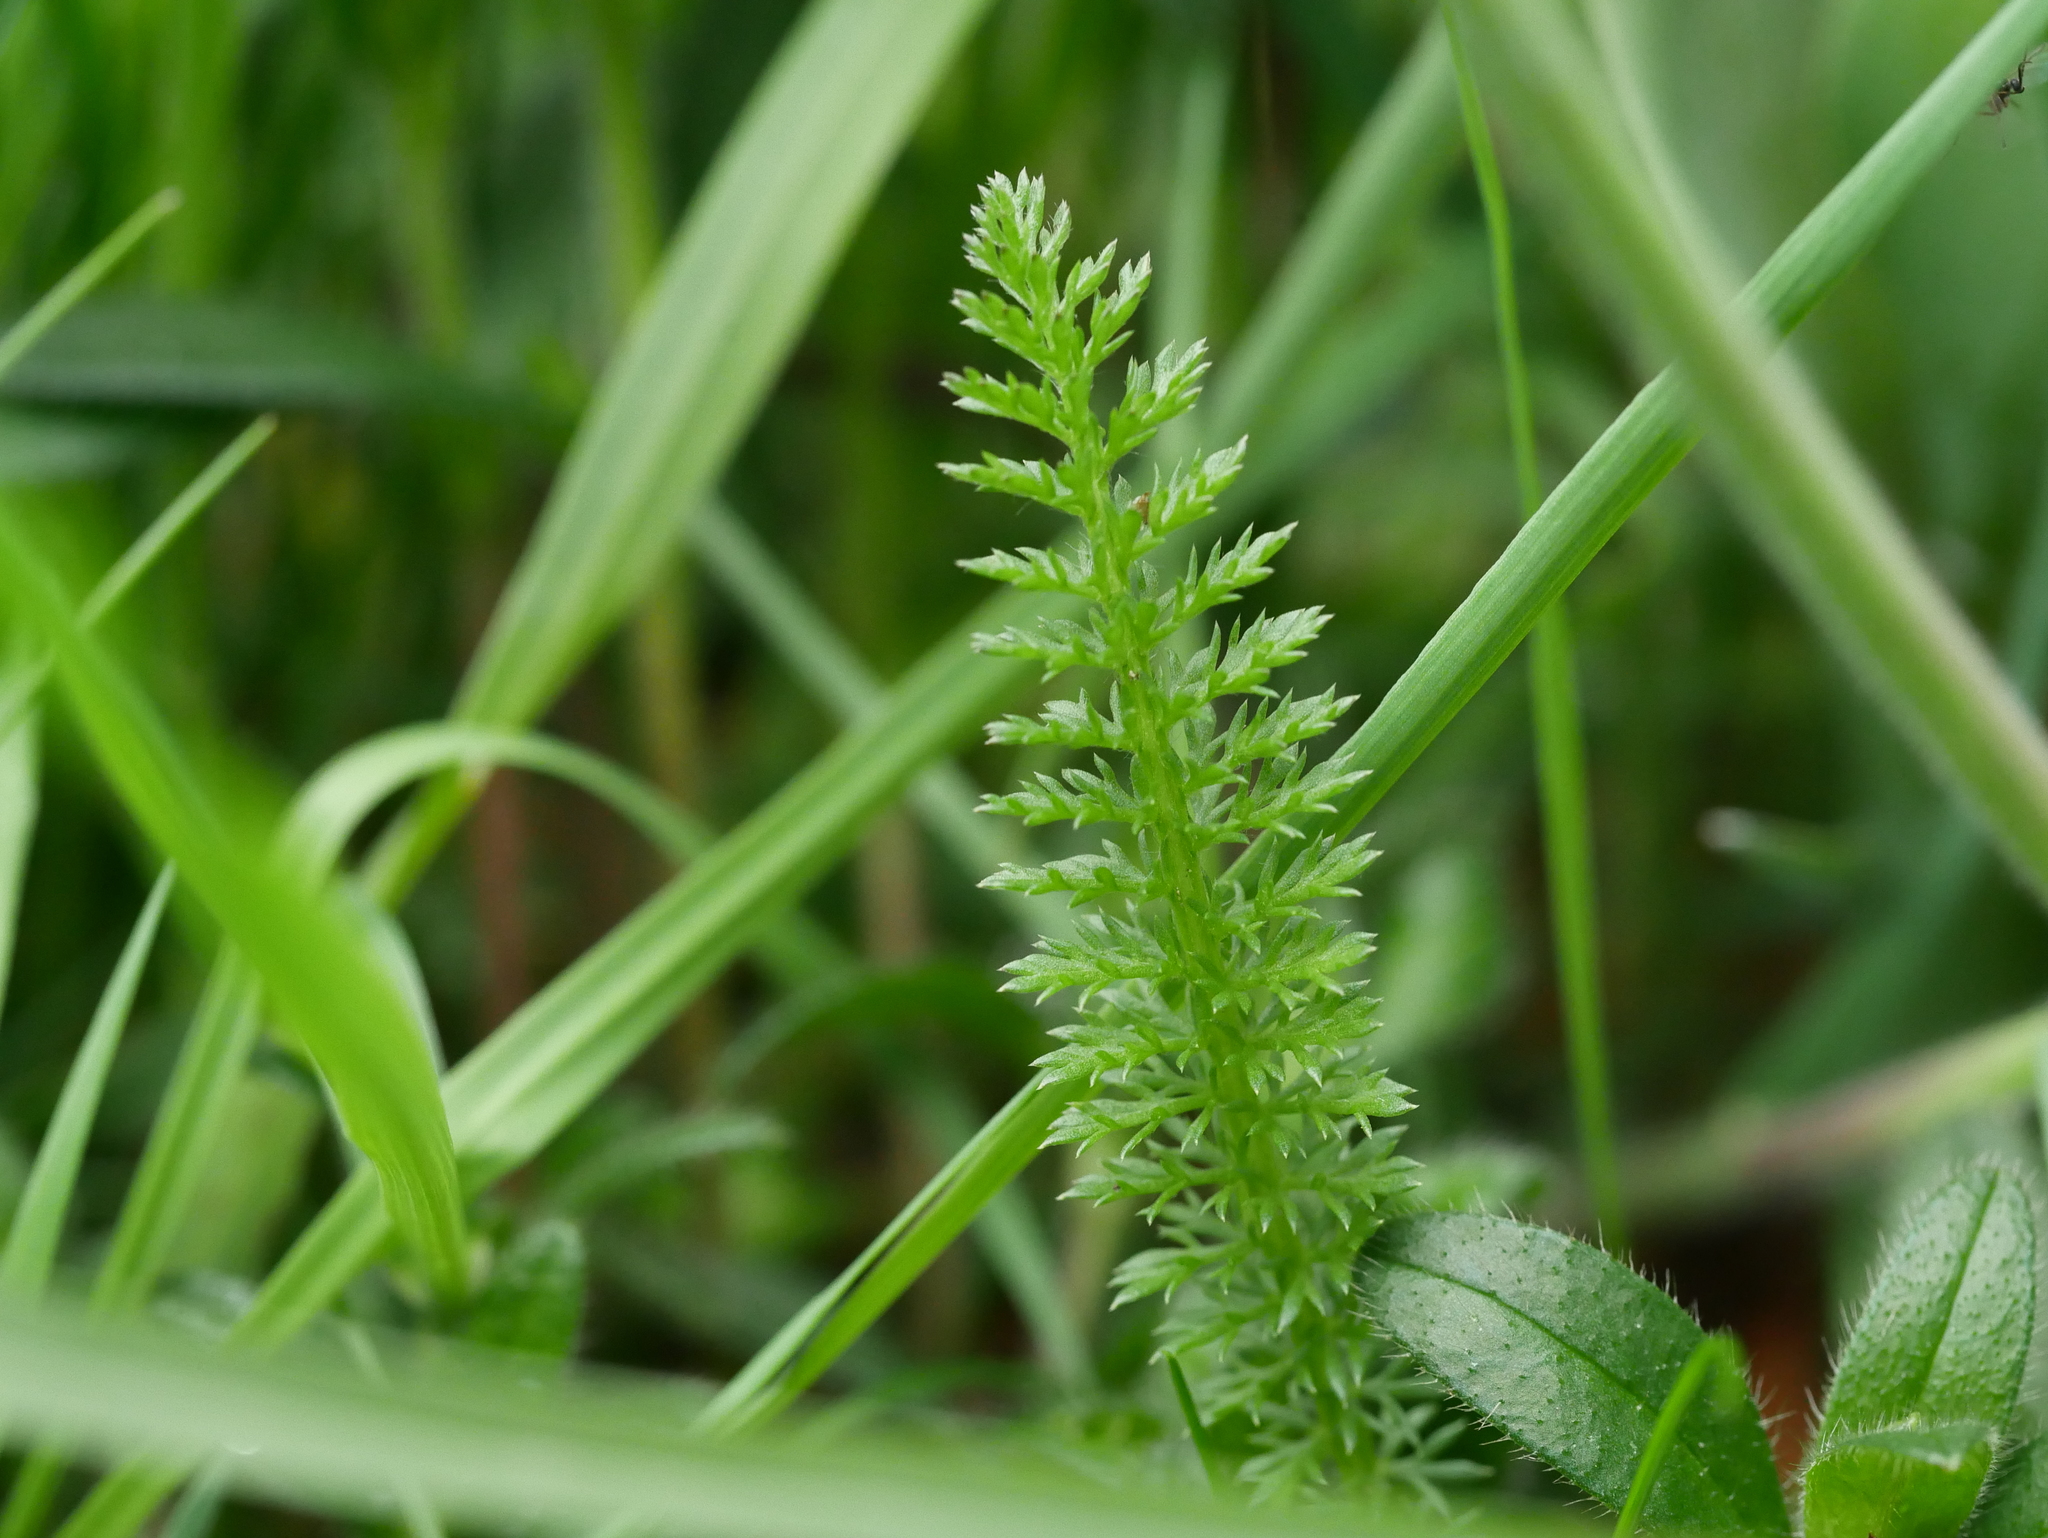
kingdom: Plantae
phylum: Tracheophyta
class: Magnoliopsida
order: Asterales
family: Asteraceae
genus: Achillea
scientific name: Achillea millefolium
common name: Yarrow
